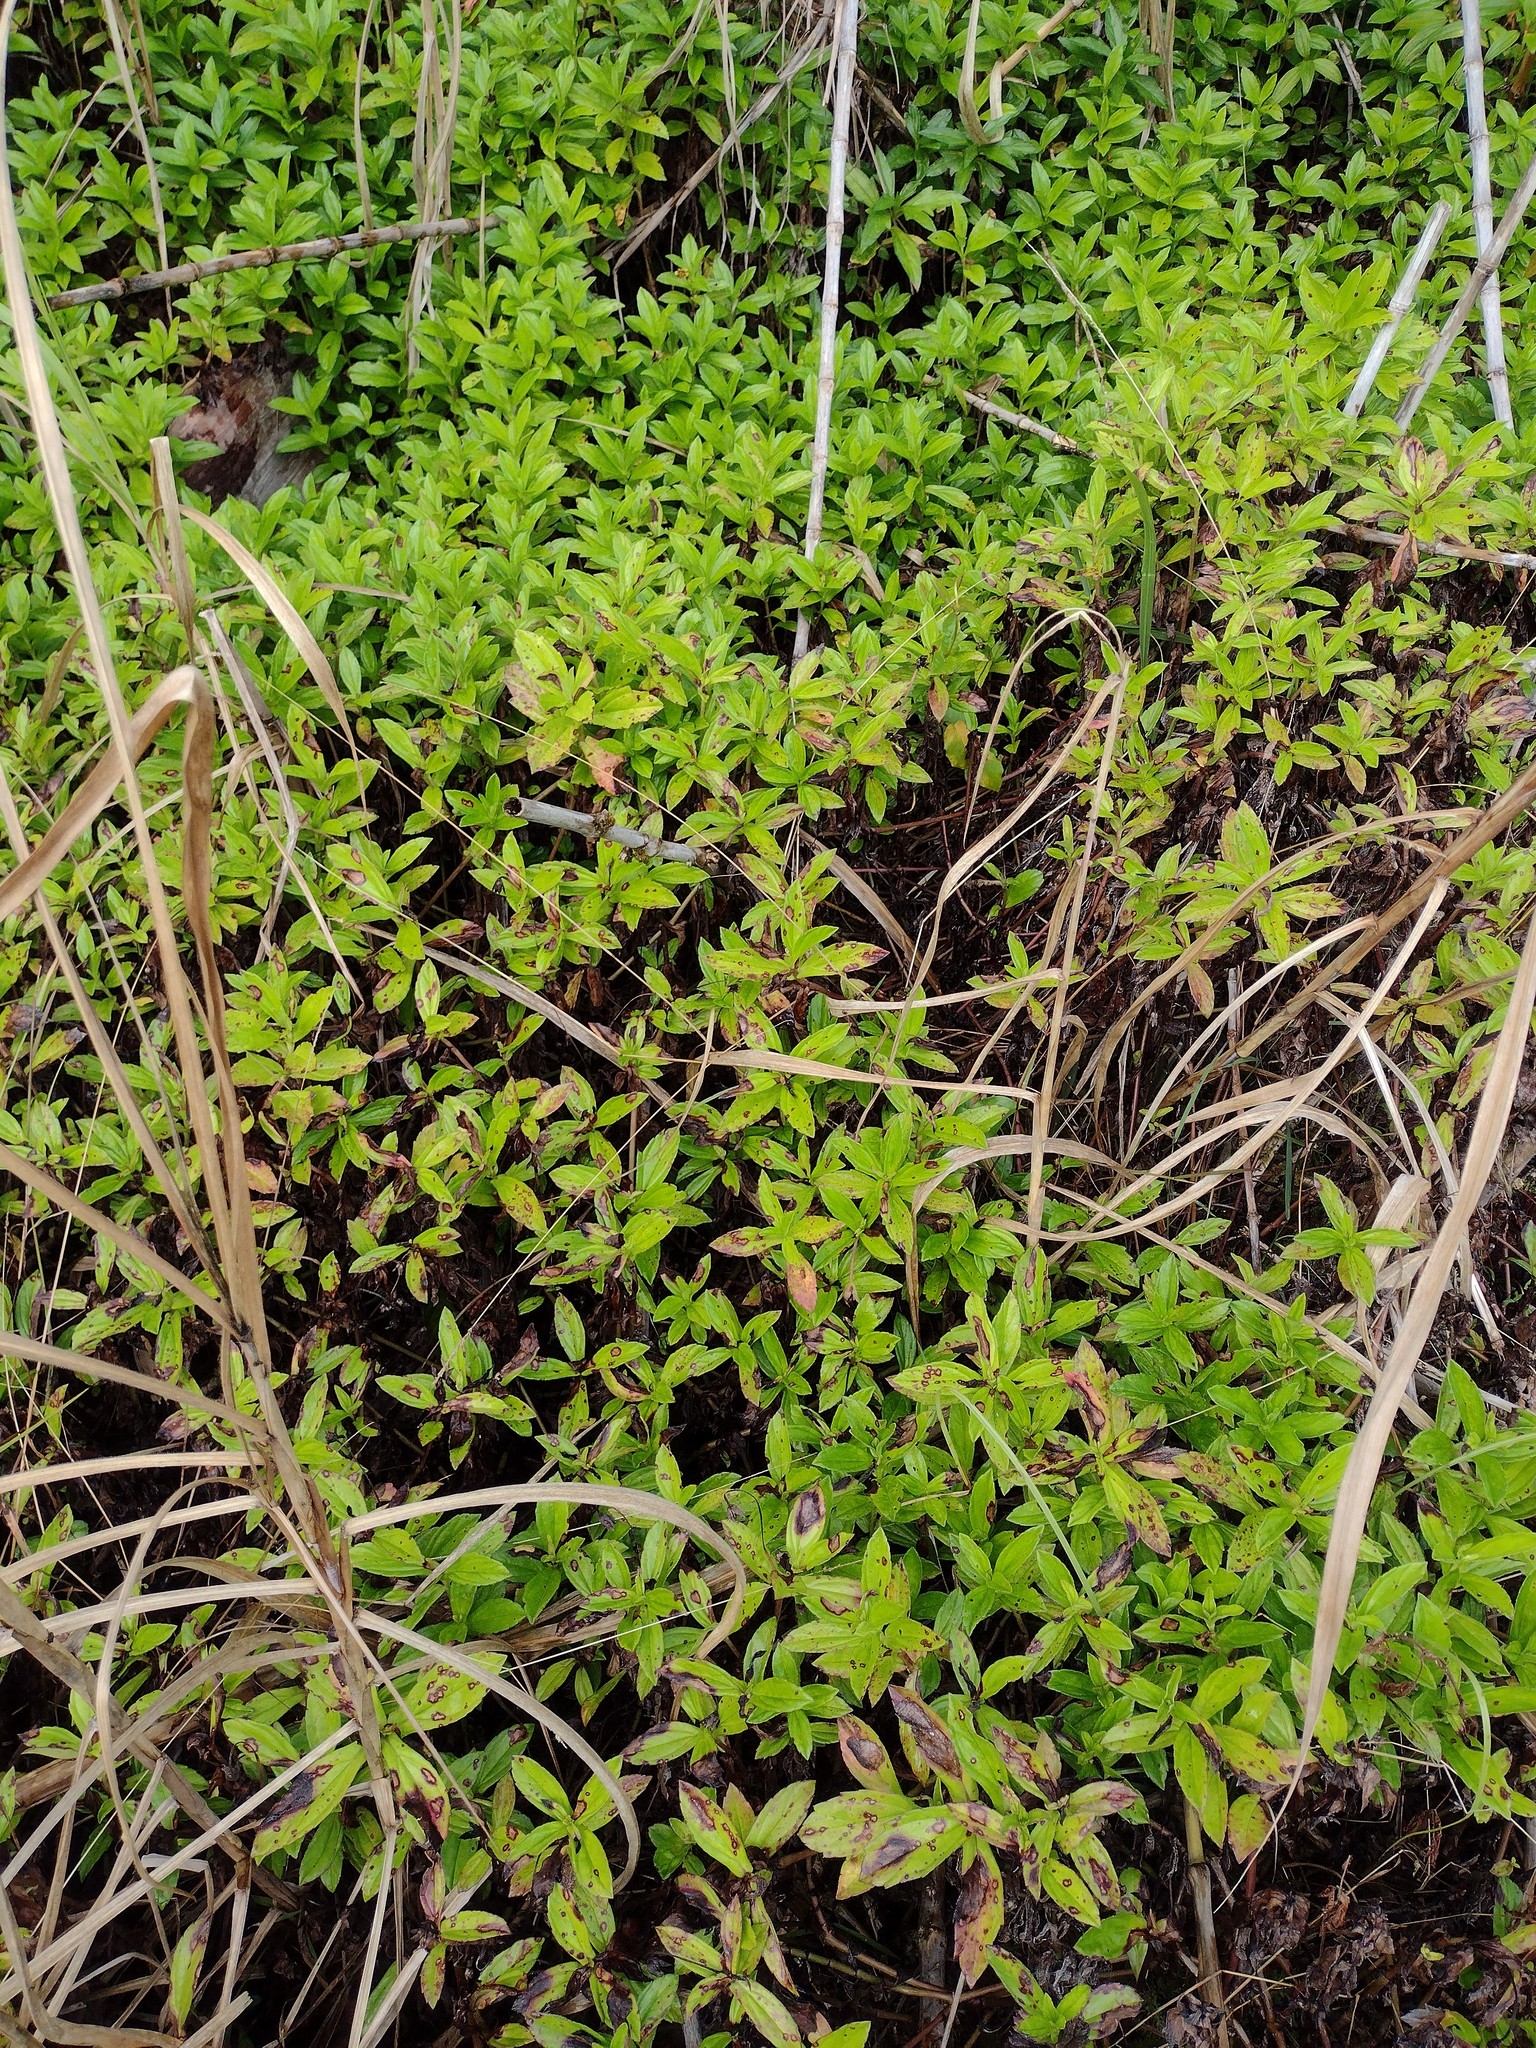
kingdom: Plantae
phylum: Tracheophyta
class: Magnoliopsida
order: Asterales
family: Asteraceae
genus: Sphagneticola
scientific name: Sphagneticola trilobata
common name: Bay biscayne creeping-oxeye
